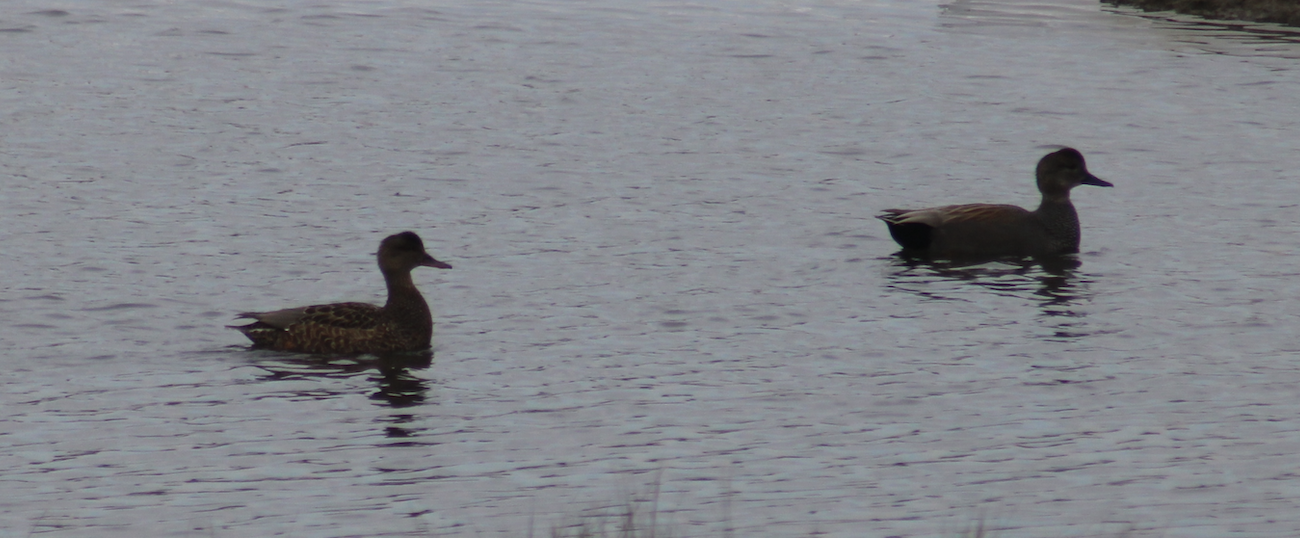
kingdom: Animalia
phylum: Chordata
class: Aves
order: Anseriformes
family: Anatidae
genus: Mareca
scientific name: Mareca strepera
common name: Gadwall
